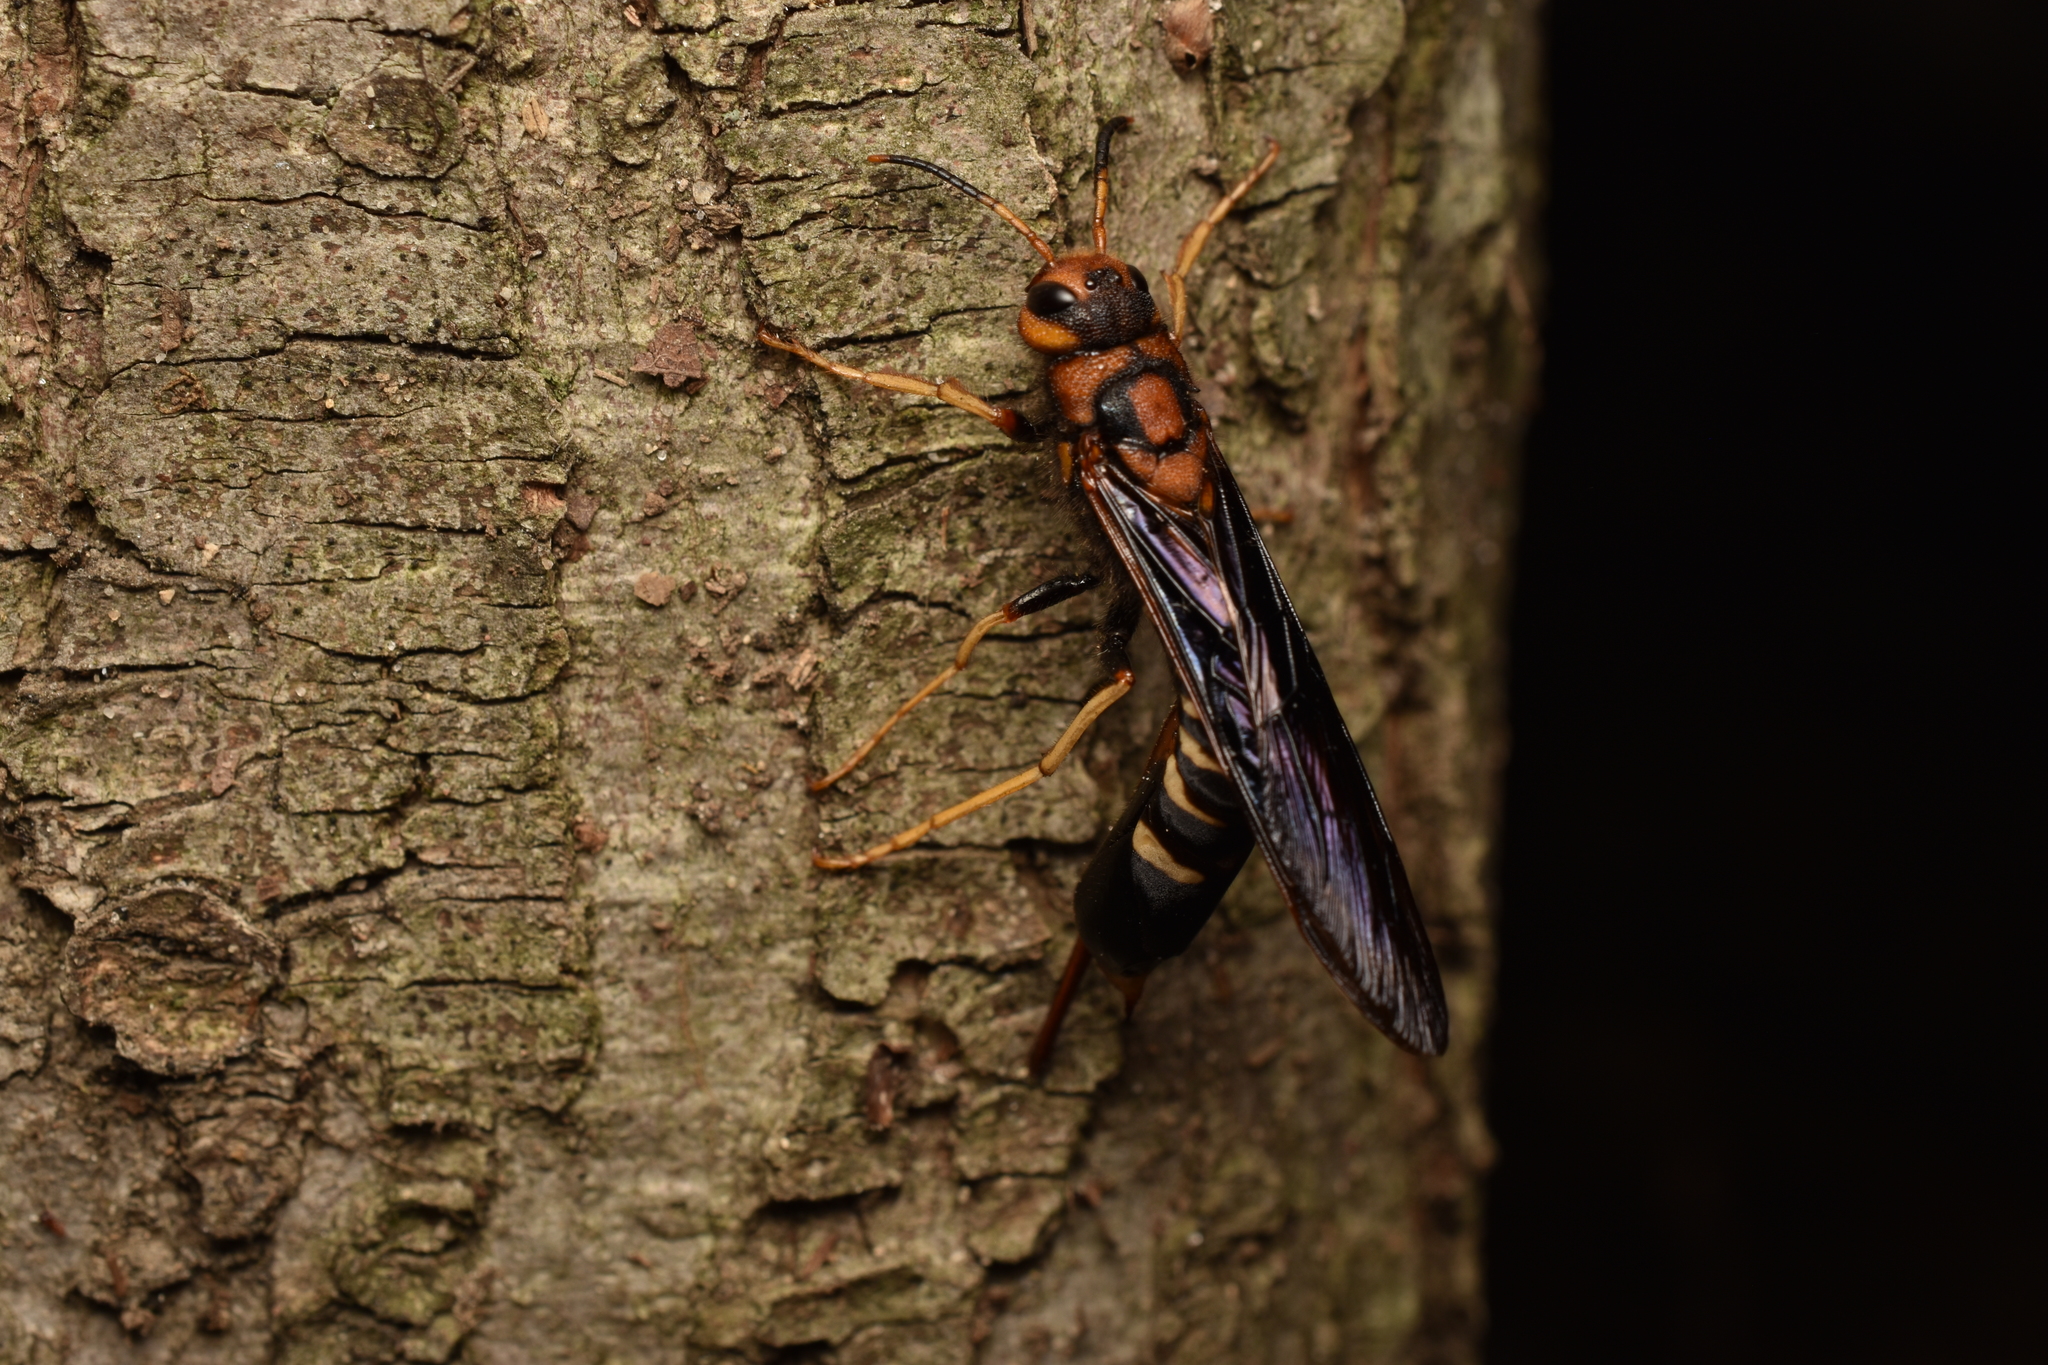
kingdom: Animalia
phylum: Arthropoda
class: Insecta
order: Hymenoptera
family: Siricidae
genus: Tremex
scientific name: Tremex columba
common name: Wasp
